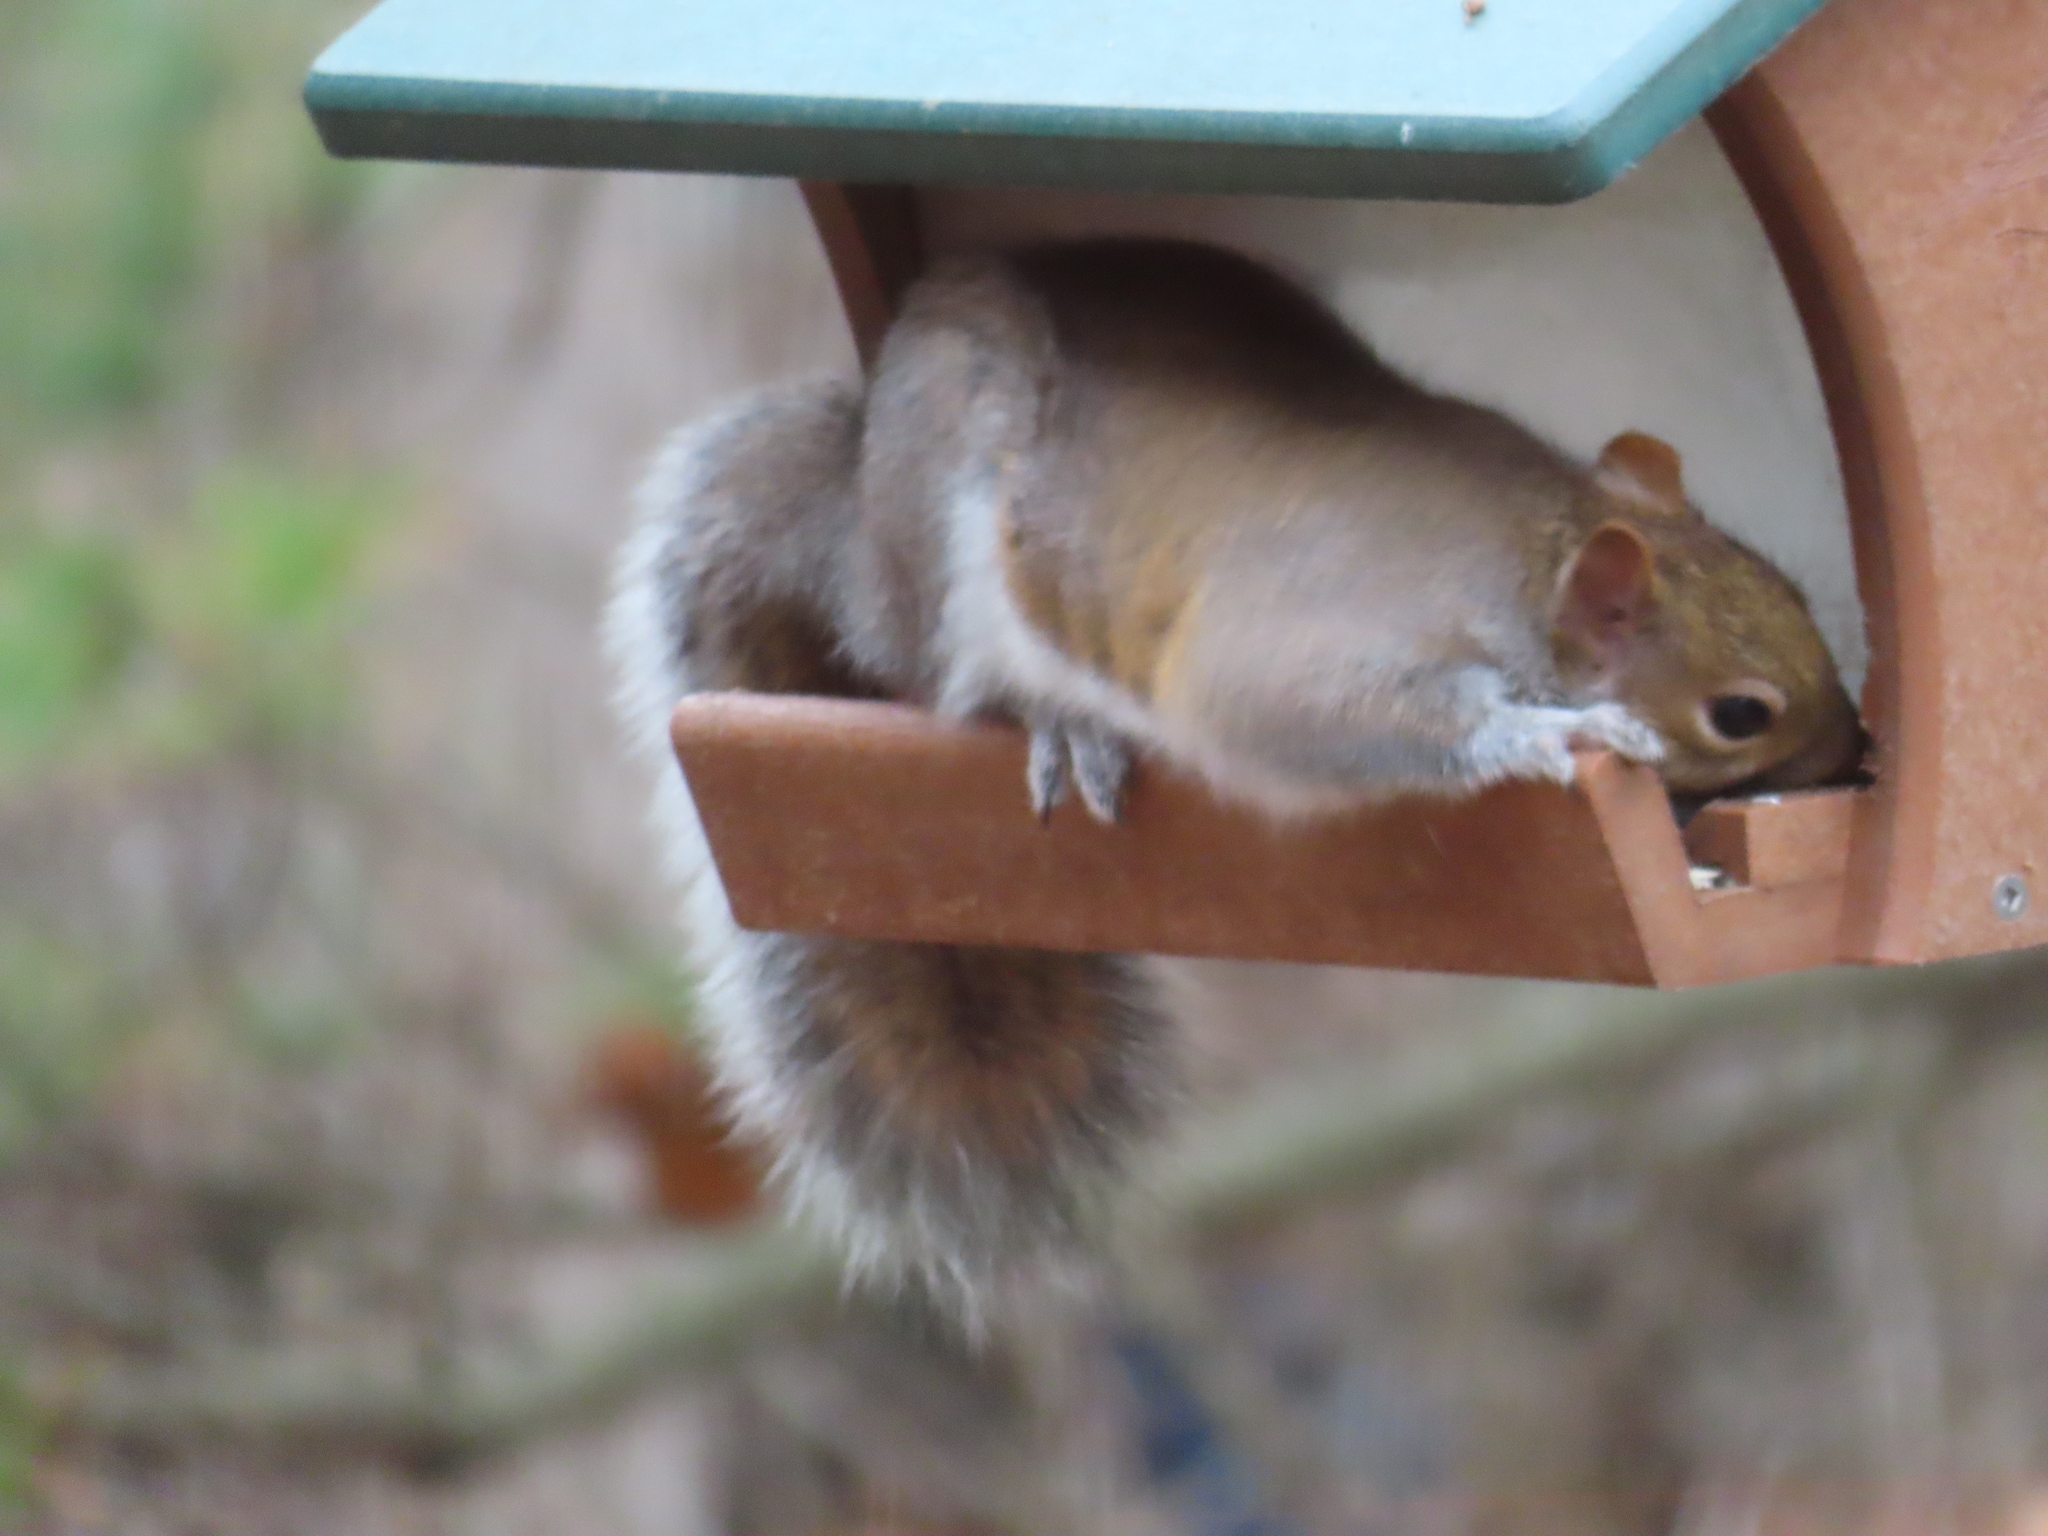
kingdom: Animalia
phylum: Chordata
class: Mammalia
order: Rodentia
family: Sciuridae
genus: Sciurus
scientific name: Sciurus carolinensis
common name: Eastern gray squirrel
